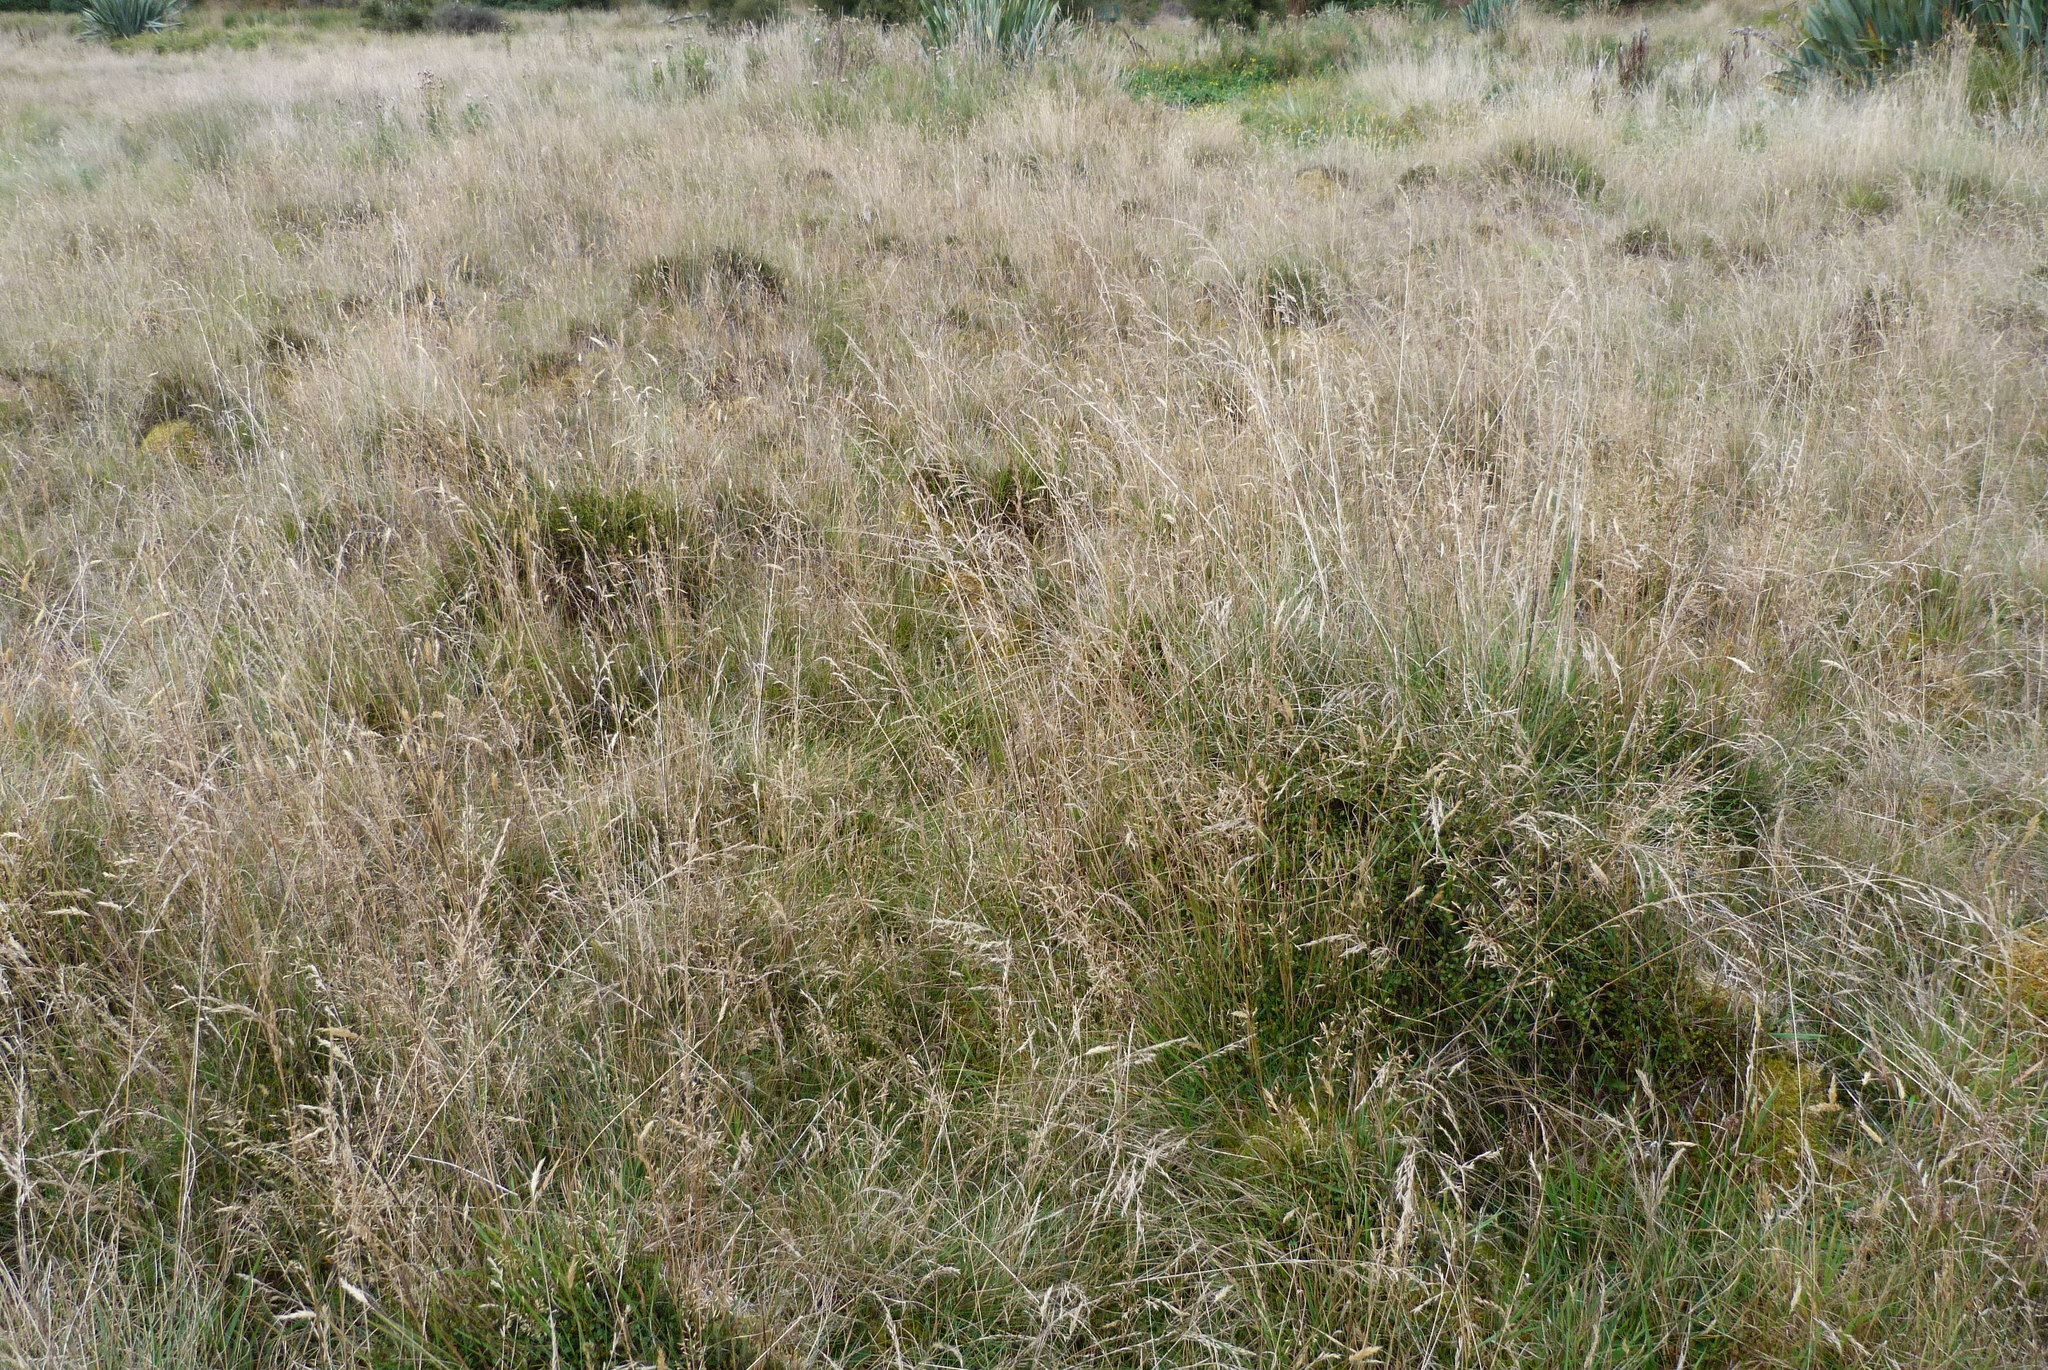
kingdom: Plantae
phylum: Tracheophyta
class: Magnoliopsida
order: Caryophyllales
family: Polygonaceae
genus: Muehlenbeckia
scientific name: Muehlenbeckia axillaris
